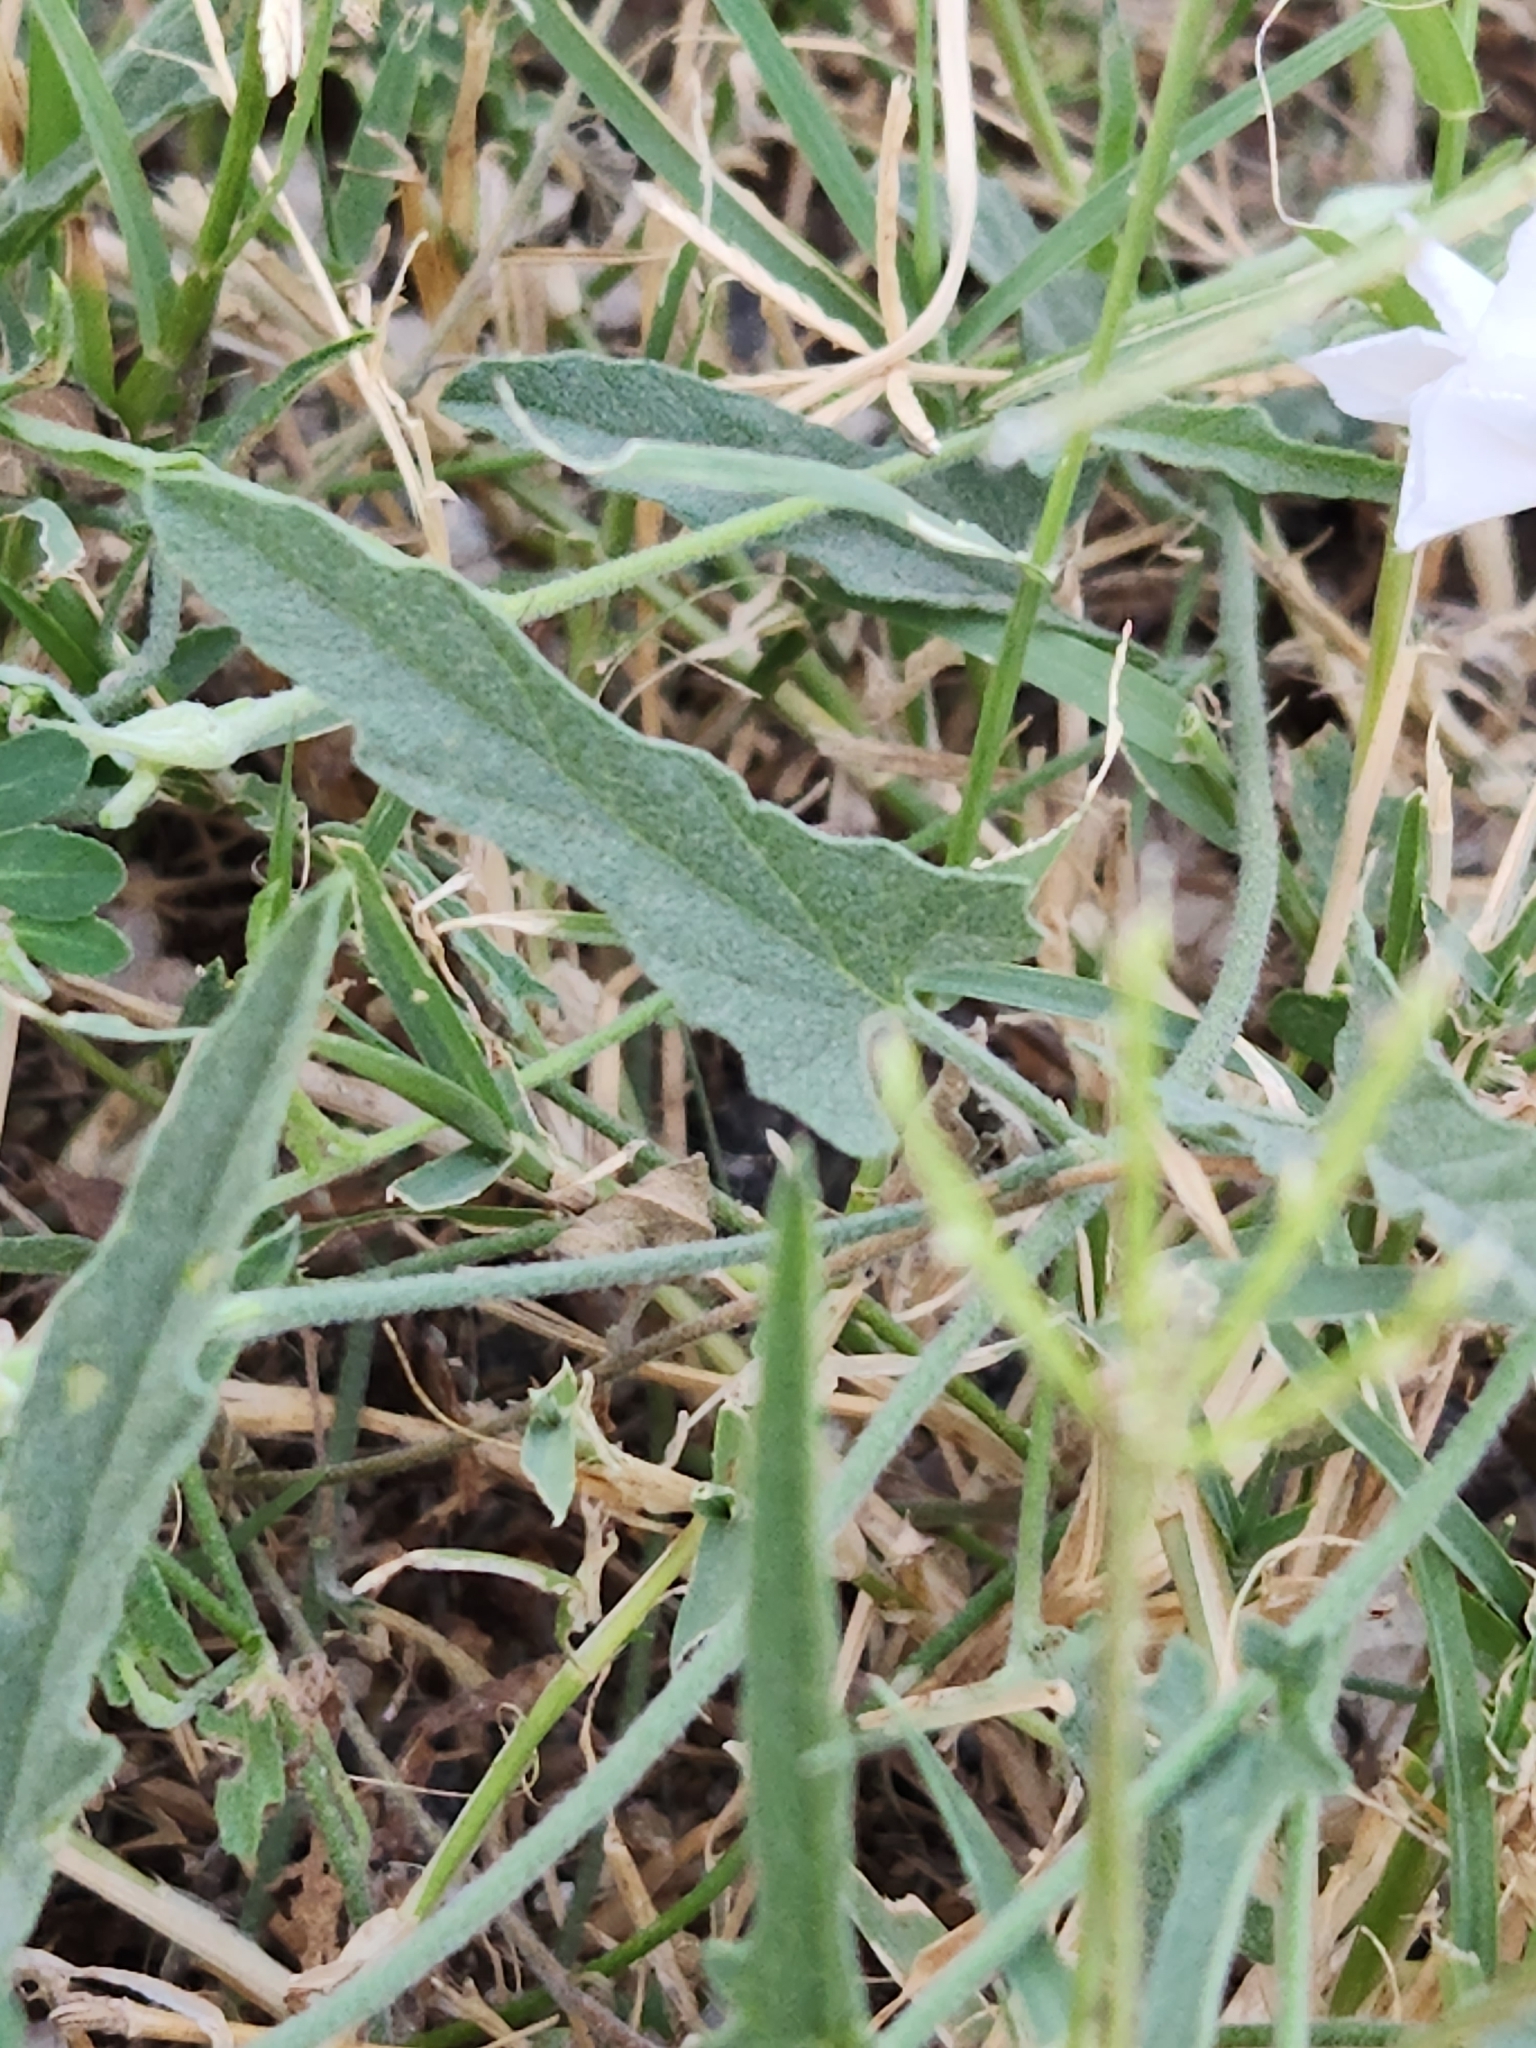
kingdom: Plantae
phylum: Tracheophyta
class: Magnoliopsida
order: Solanales
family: Convolvulaceae
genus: Convolvulus
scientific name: Convolvulus equitans
